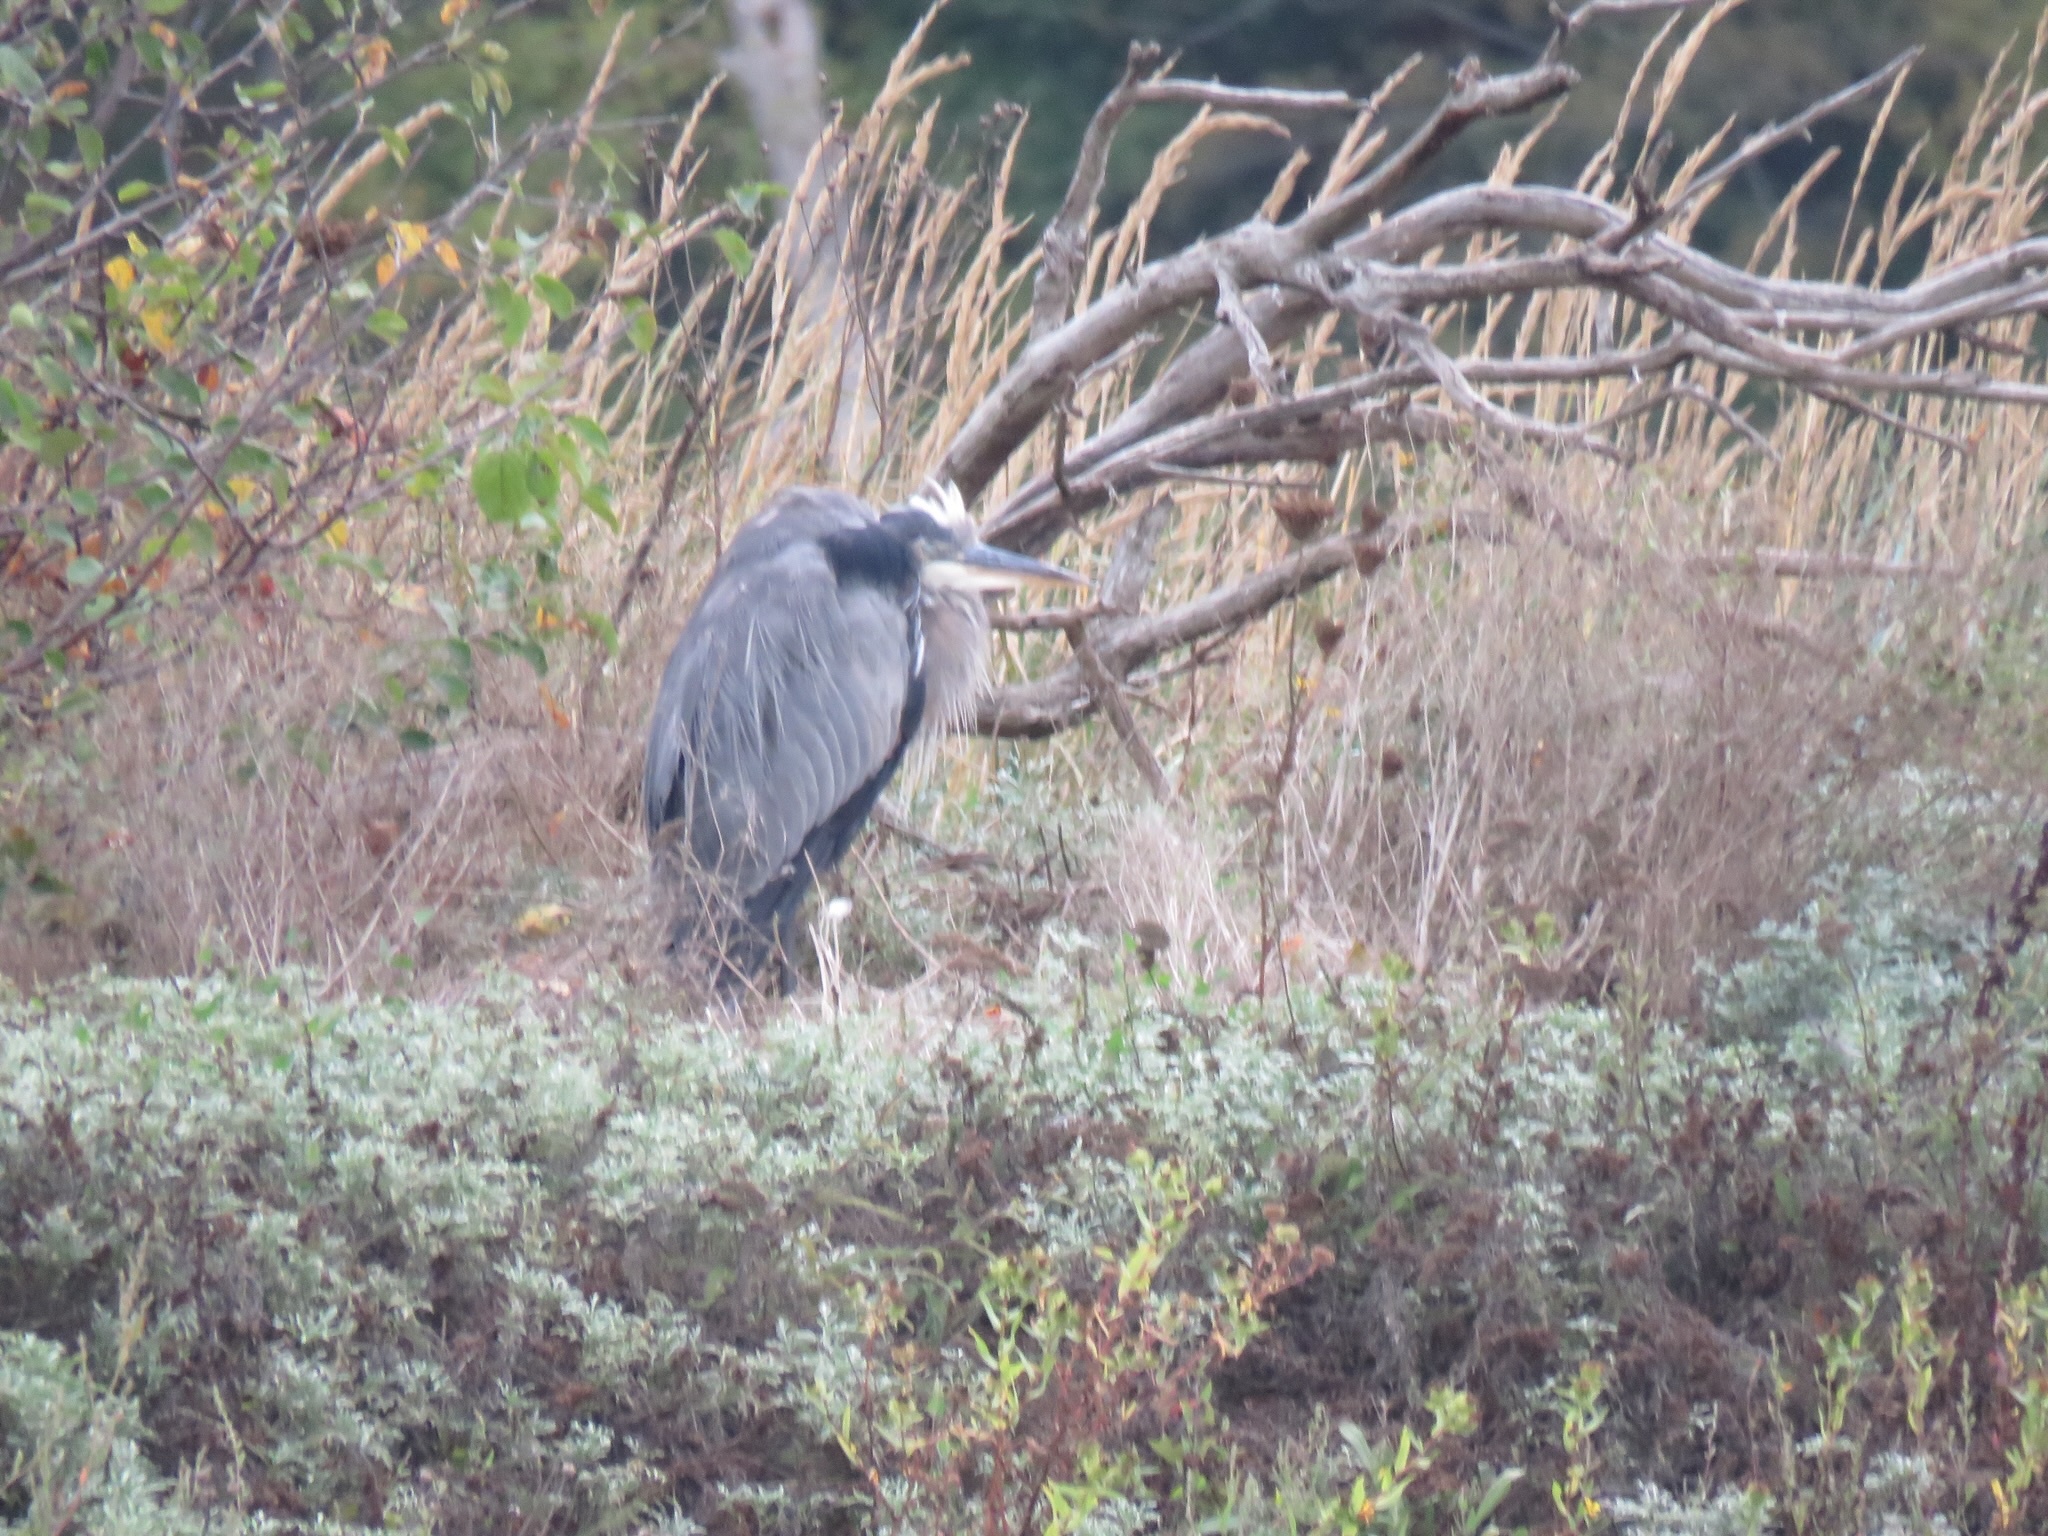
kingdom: Animalia
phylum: Chordata
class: Aves
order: Pelecaniformes
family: Ardeidae
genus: Ardea
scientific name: Ardea herodias
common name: Great blue heron
